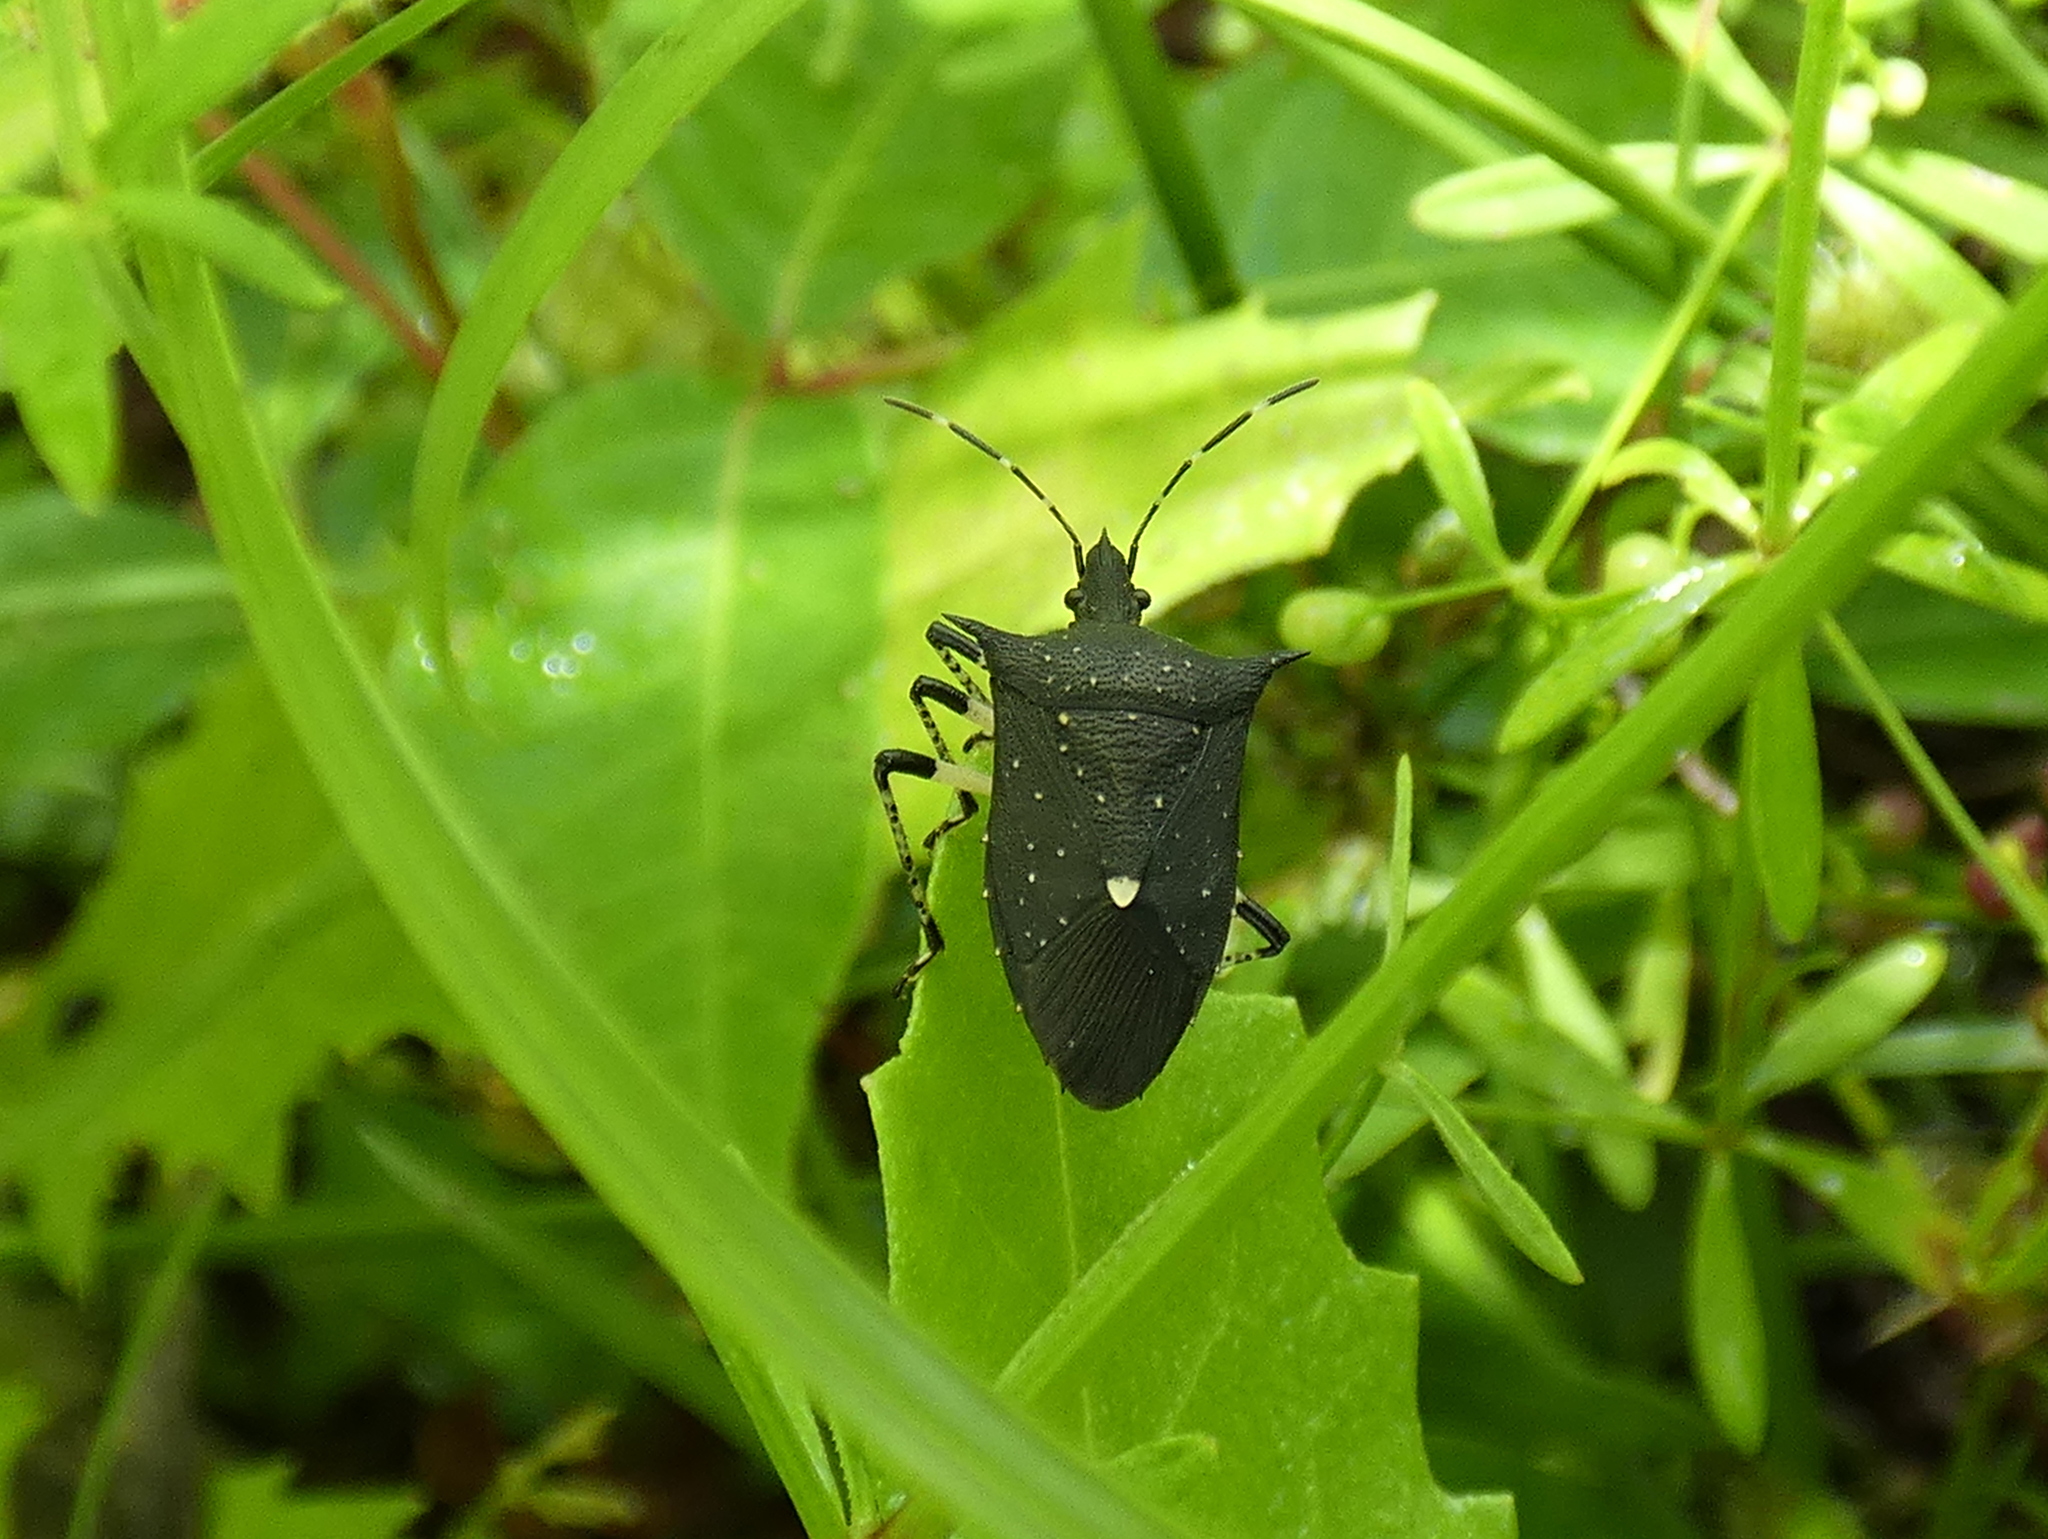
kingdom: Animalia
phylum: Arthropoda
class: Insecta
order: Hemiptera
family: Pentatomidae
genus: Proxys
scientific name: Proxys punctulatus
